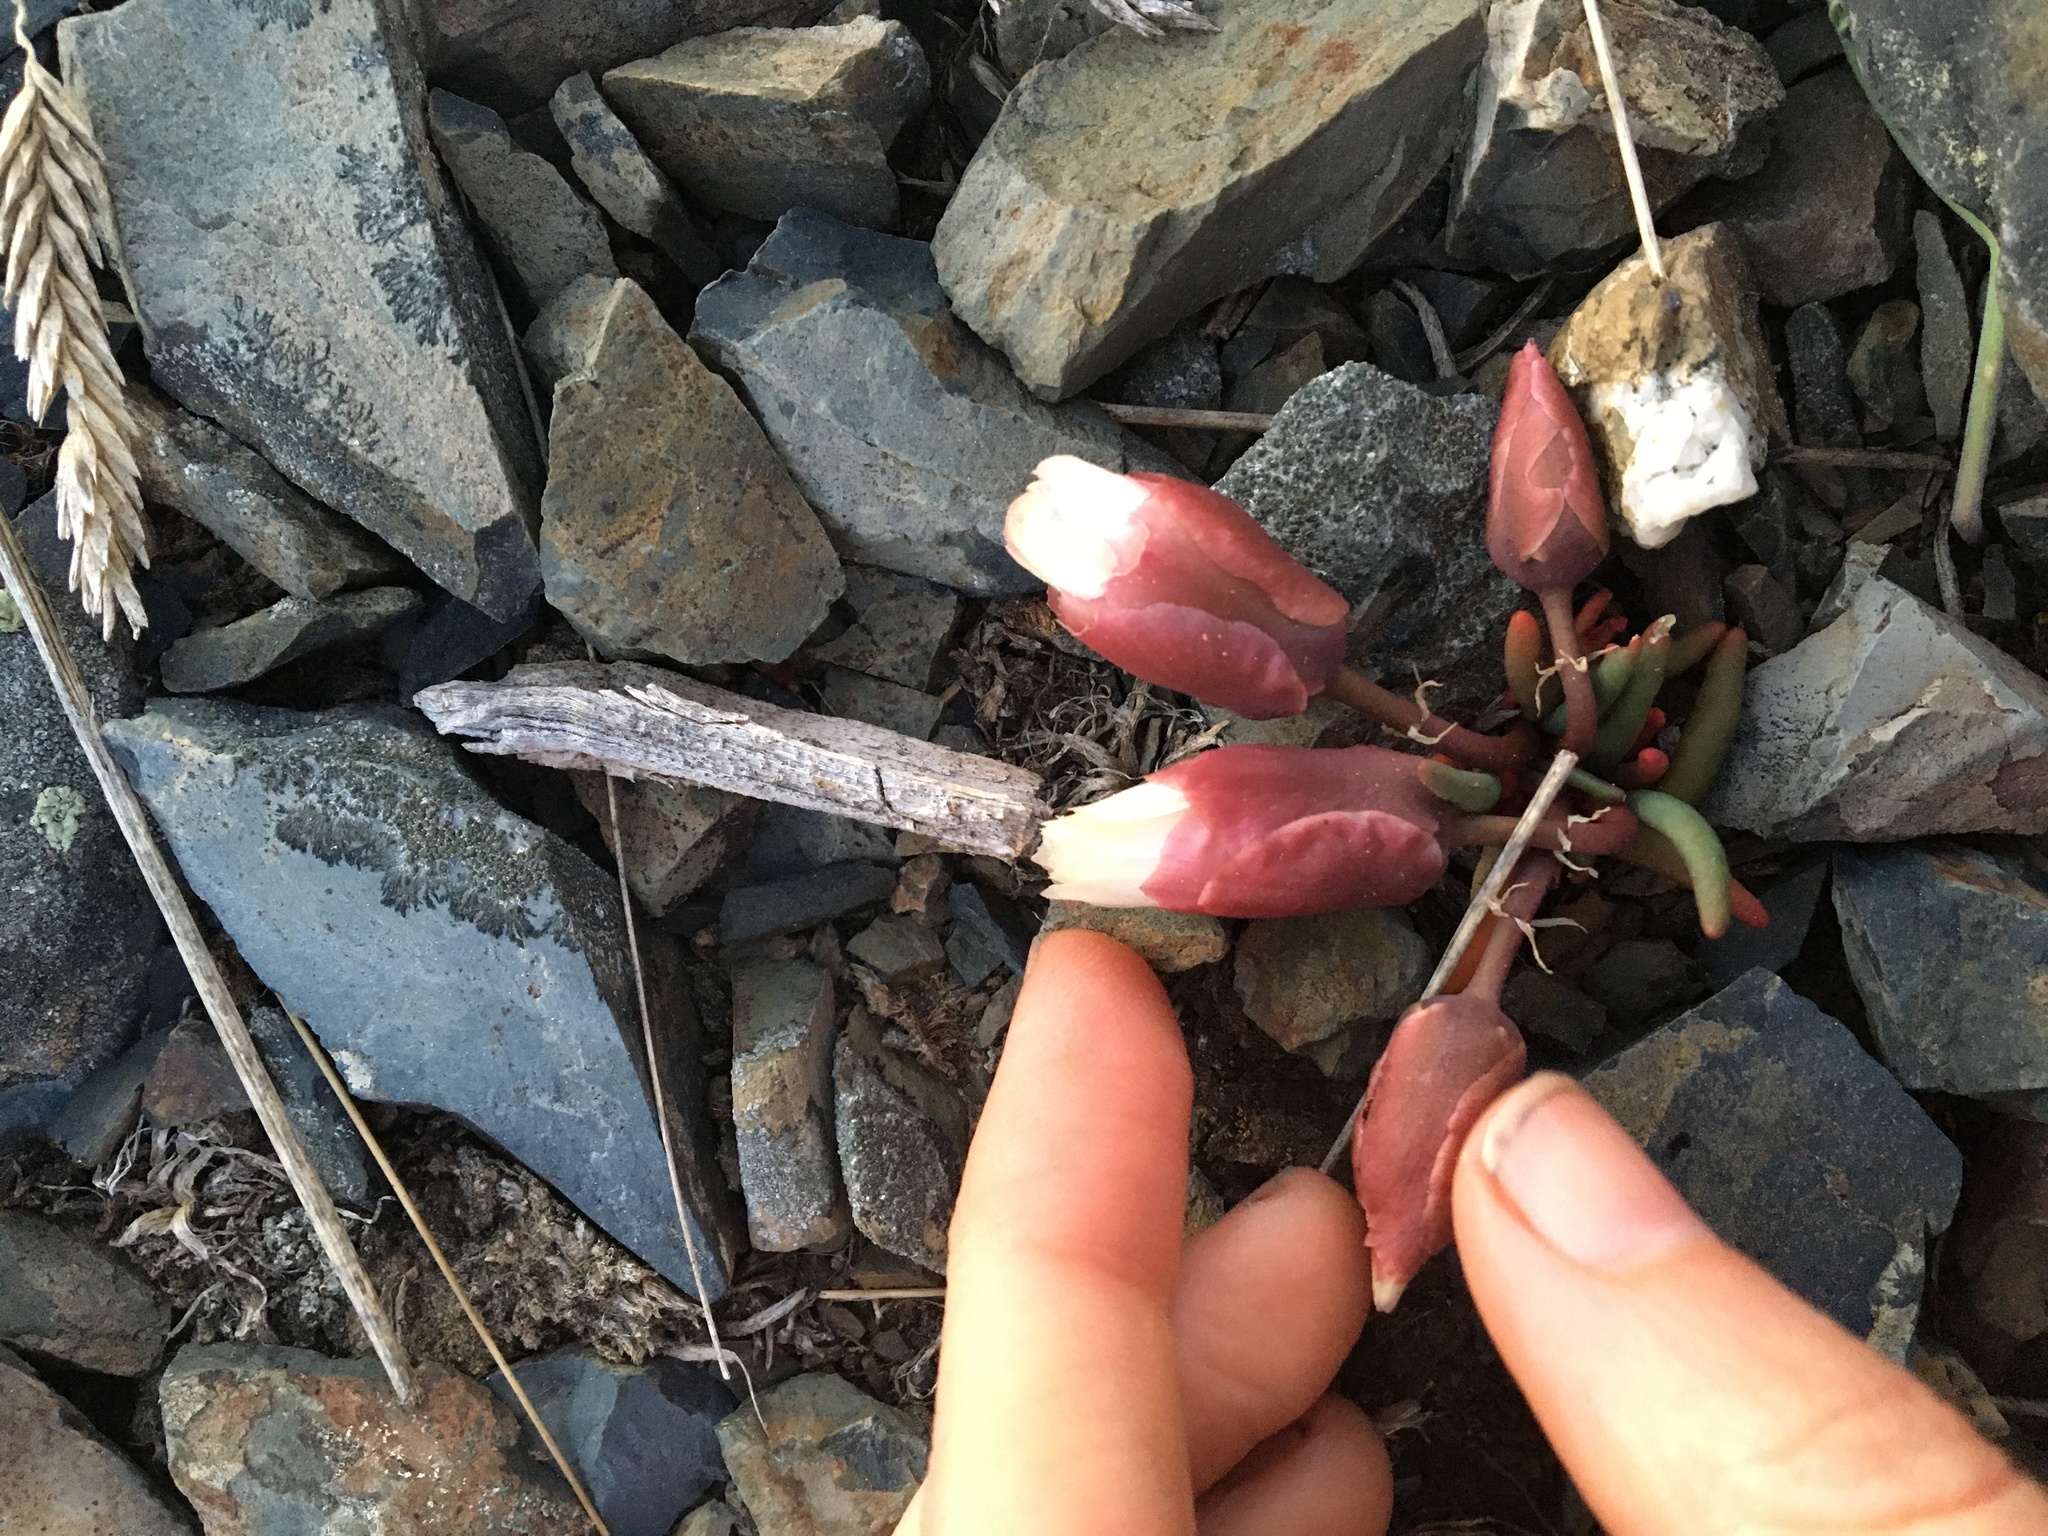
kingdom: Plantae
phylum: Tracheophyta
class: Magnoliopsida
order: Caryophyllales
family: Montiaceae
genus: Lewisia
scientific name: Lewisia rediviva
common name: Bitter-root
